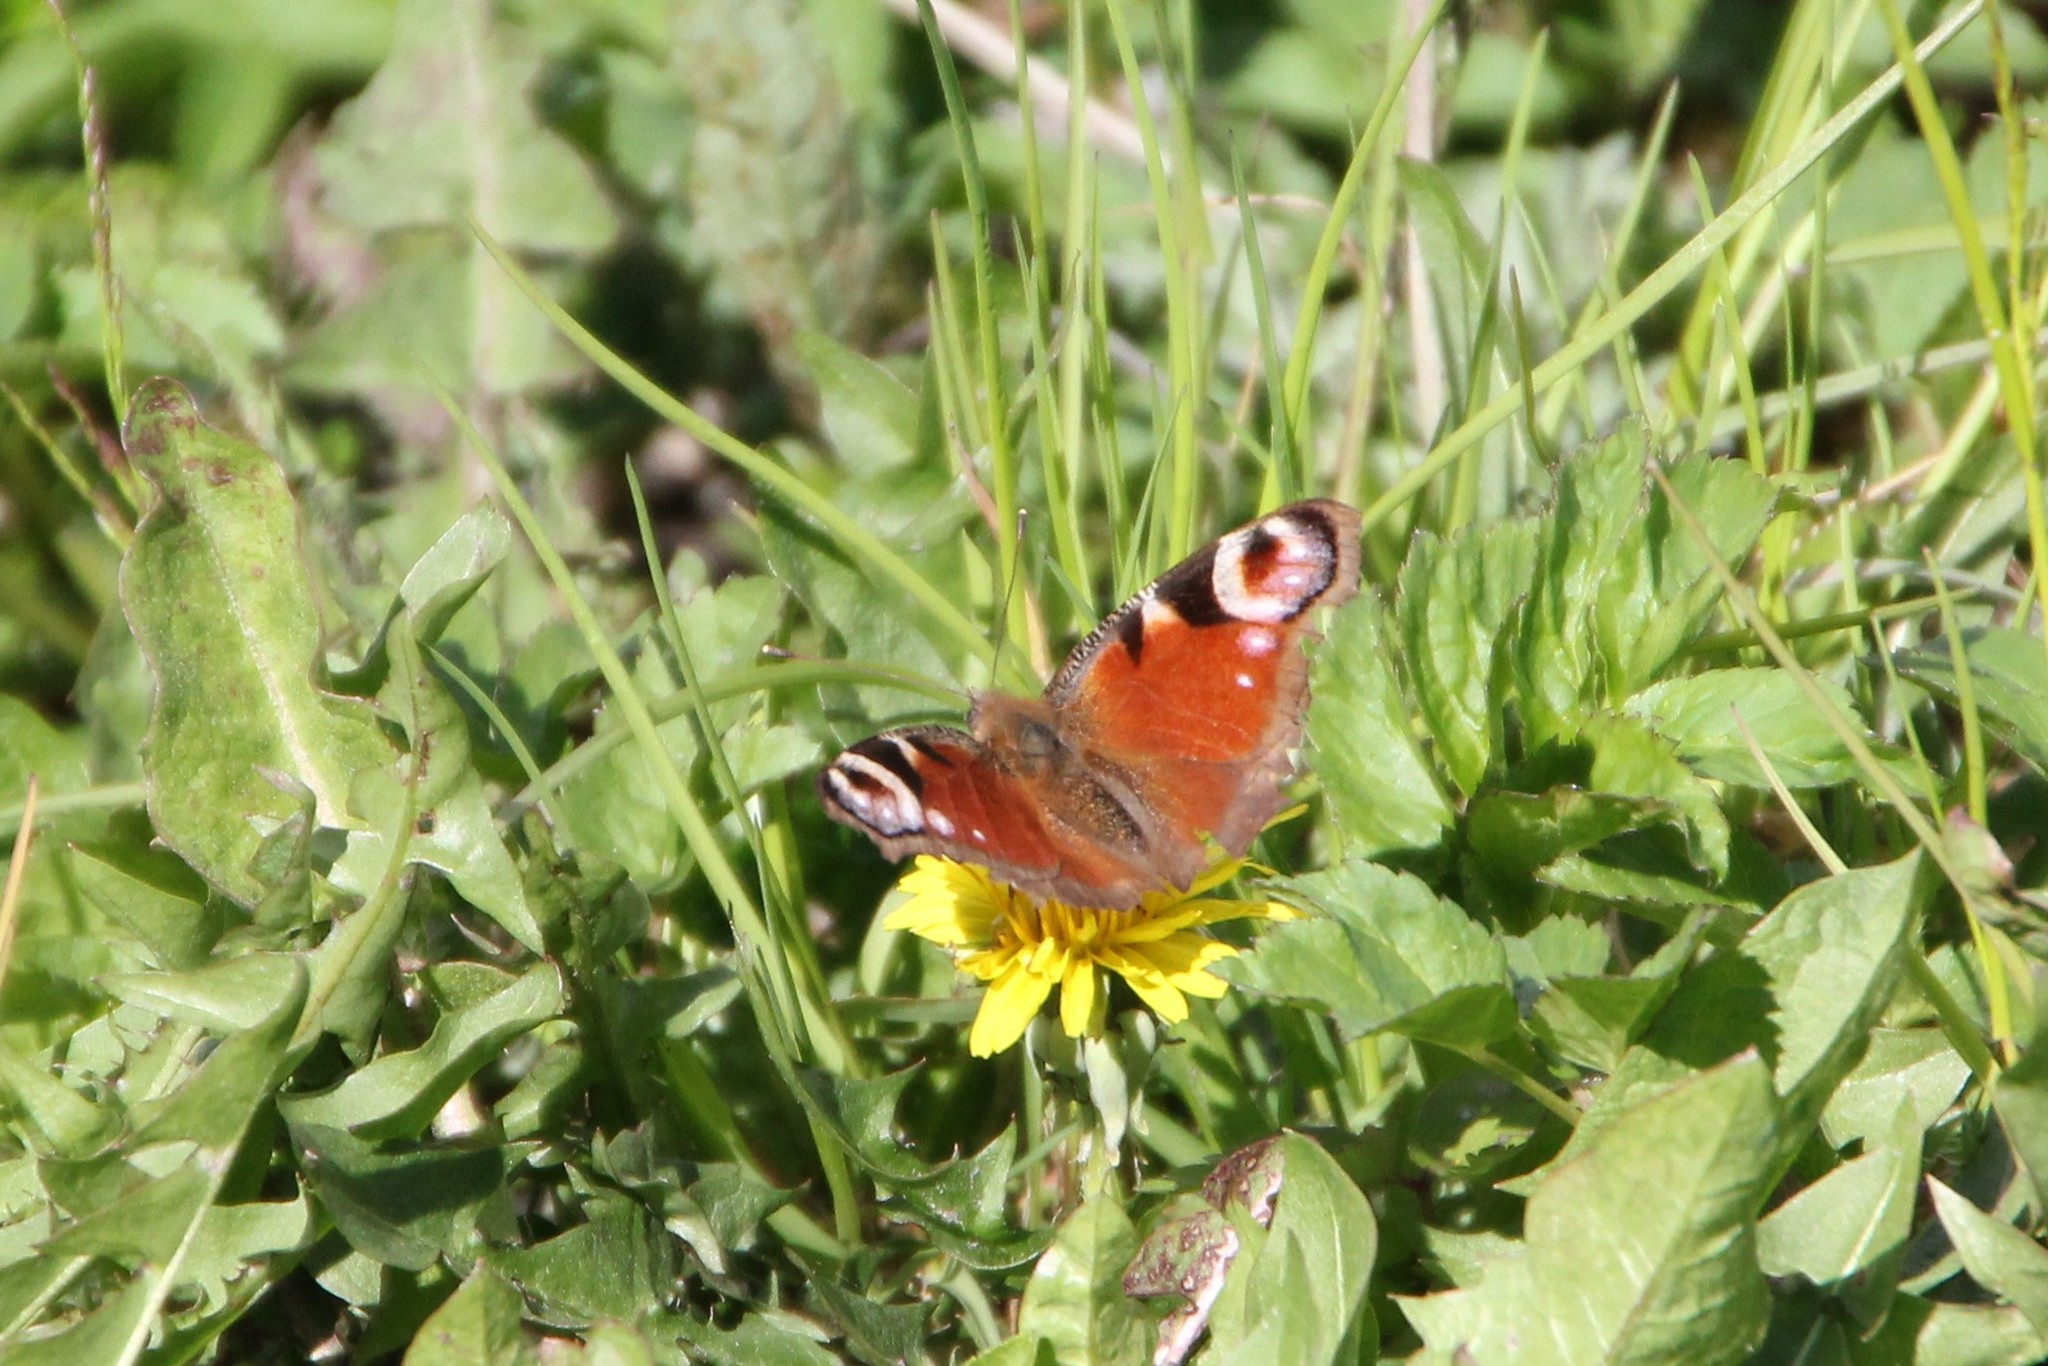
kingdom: Animalia
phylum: Arthropoda
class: Insecta
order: Lepidoptera
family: Nymphalidae
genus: Aglais
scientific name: Aglais io
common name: Peacock
